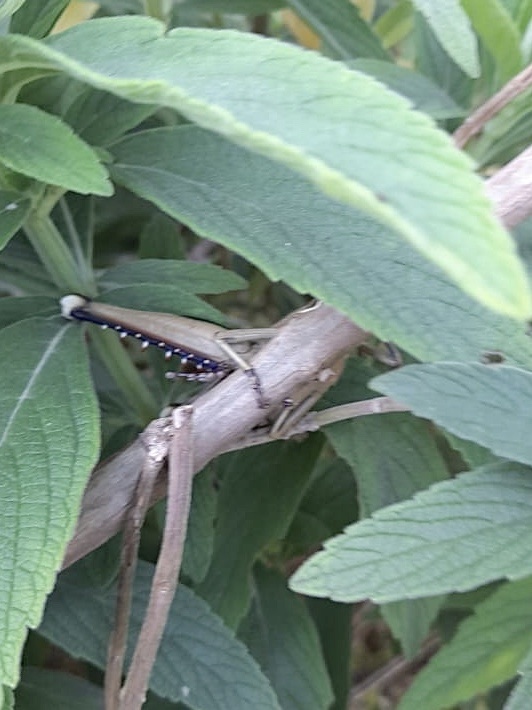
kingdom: Animalia
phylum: Arthropoda
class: Insecta
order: Orthoptera
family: Acrididae
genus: Acanthacris
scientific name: Acanthacris ruficornis
